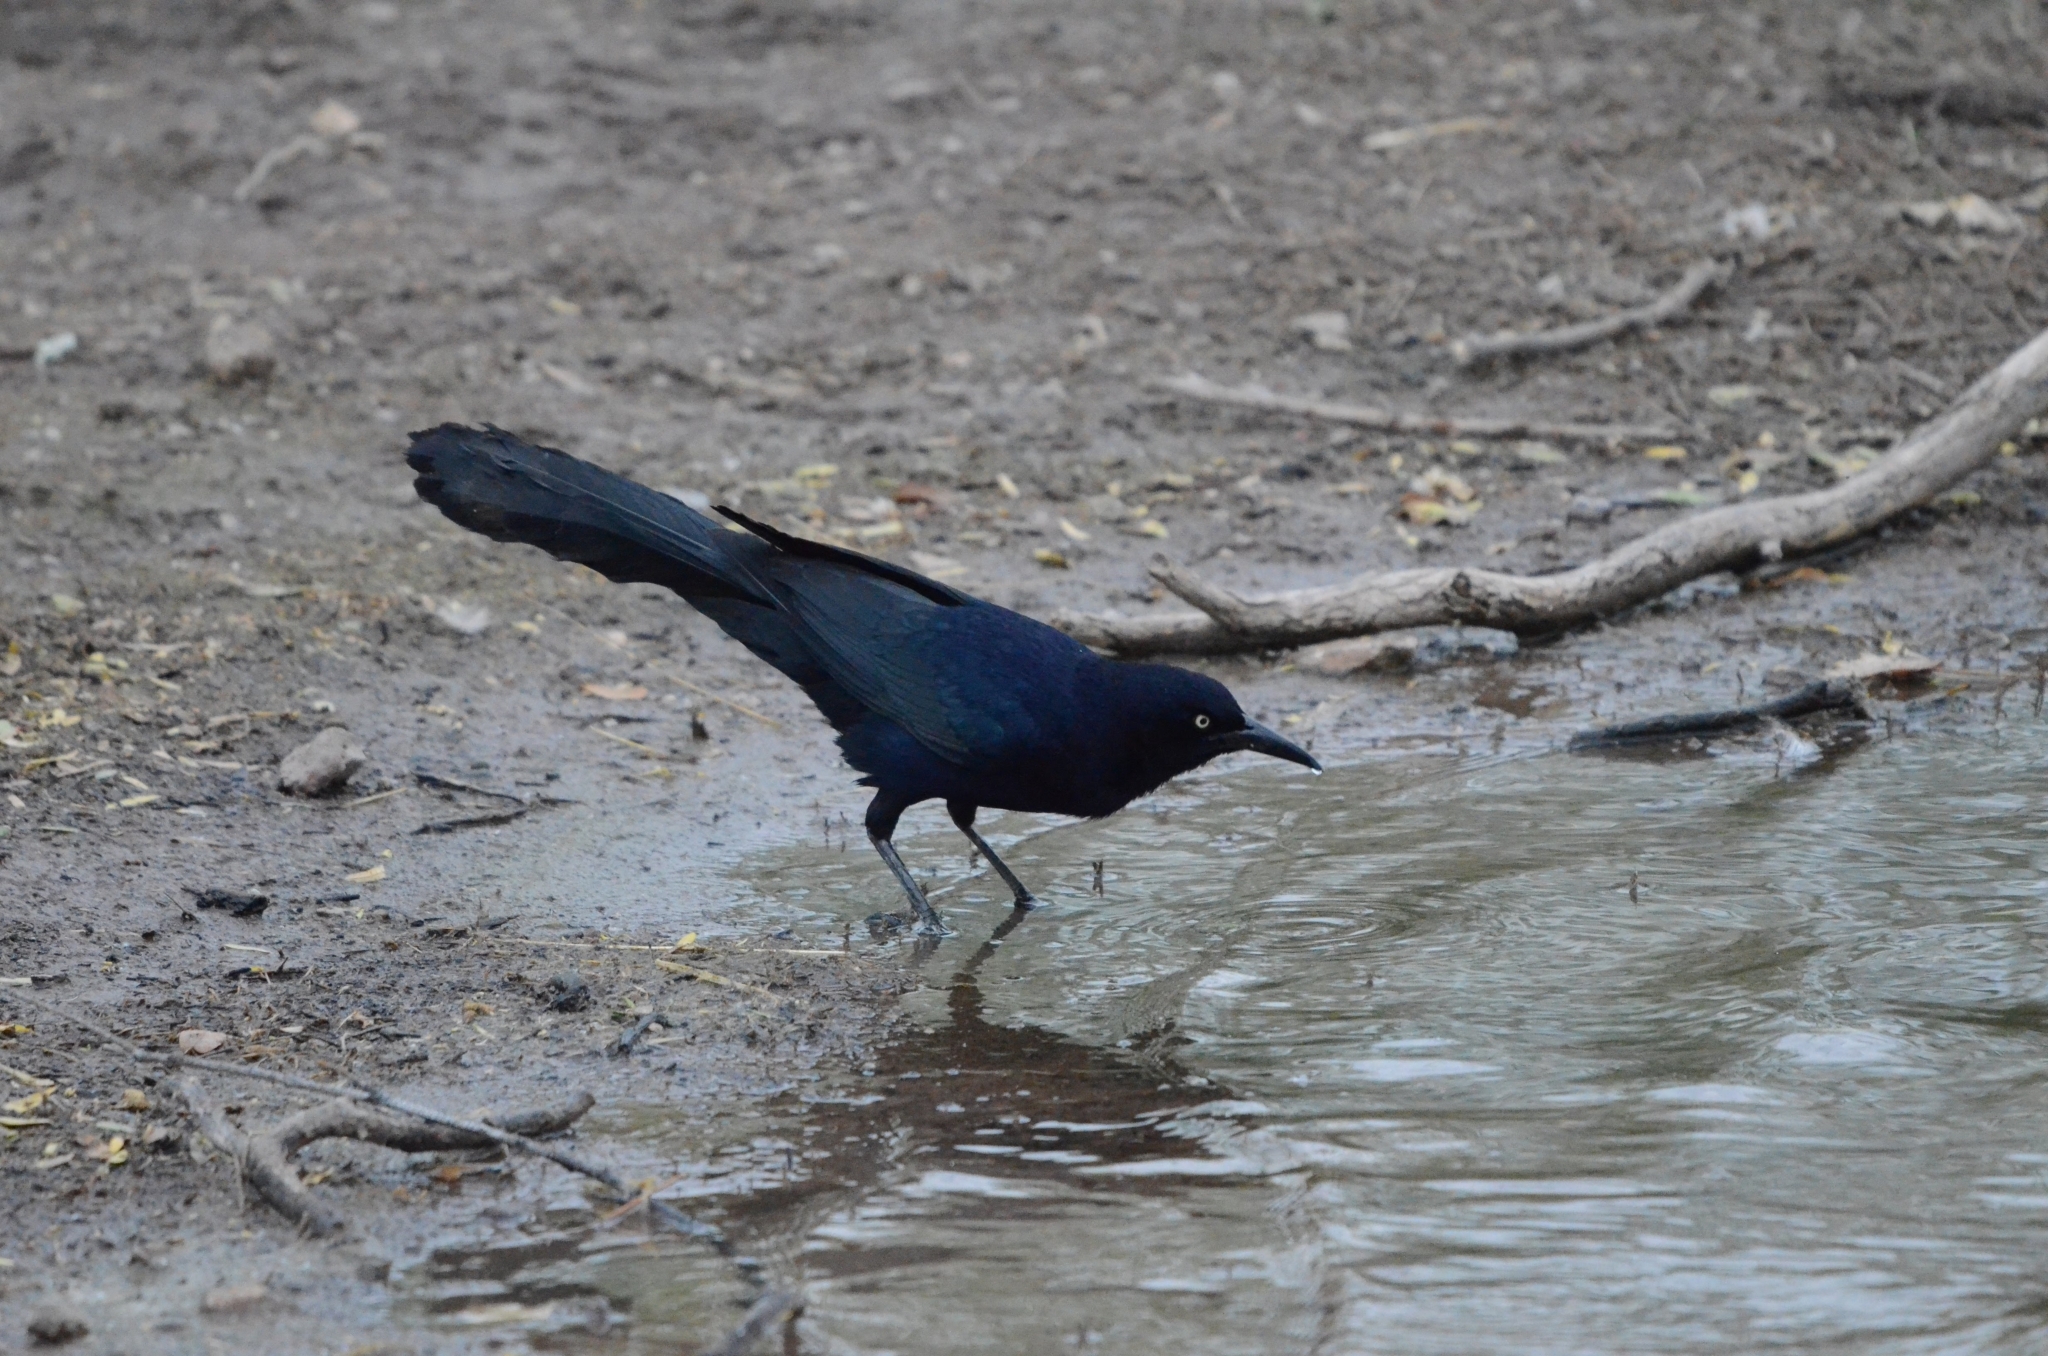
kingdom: Animalia
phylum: Chordata
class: Aves
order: Passeriformes
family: Icteridae
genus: Quiscalus
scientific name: Quiscalus mexicanus
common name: Great-tailed grackle
